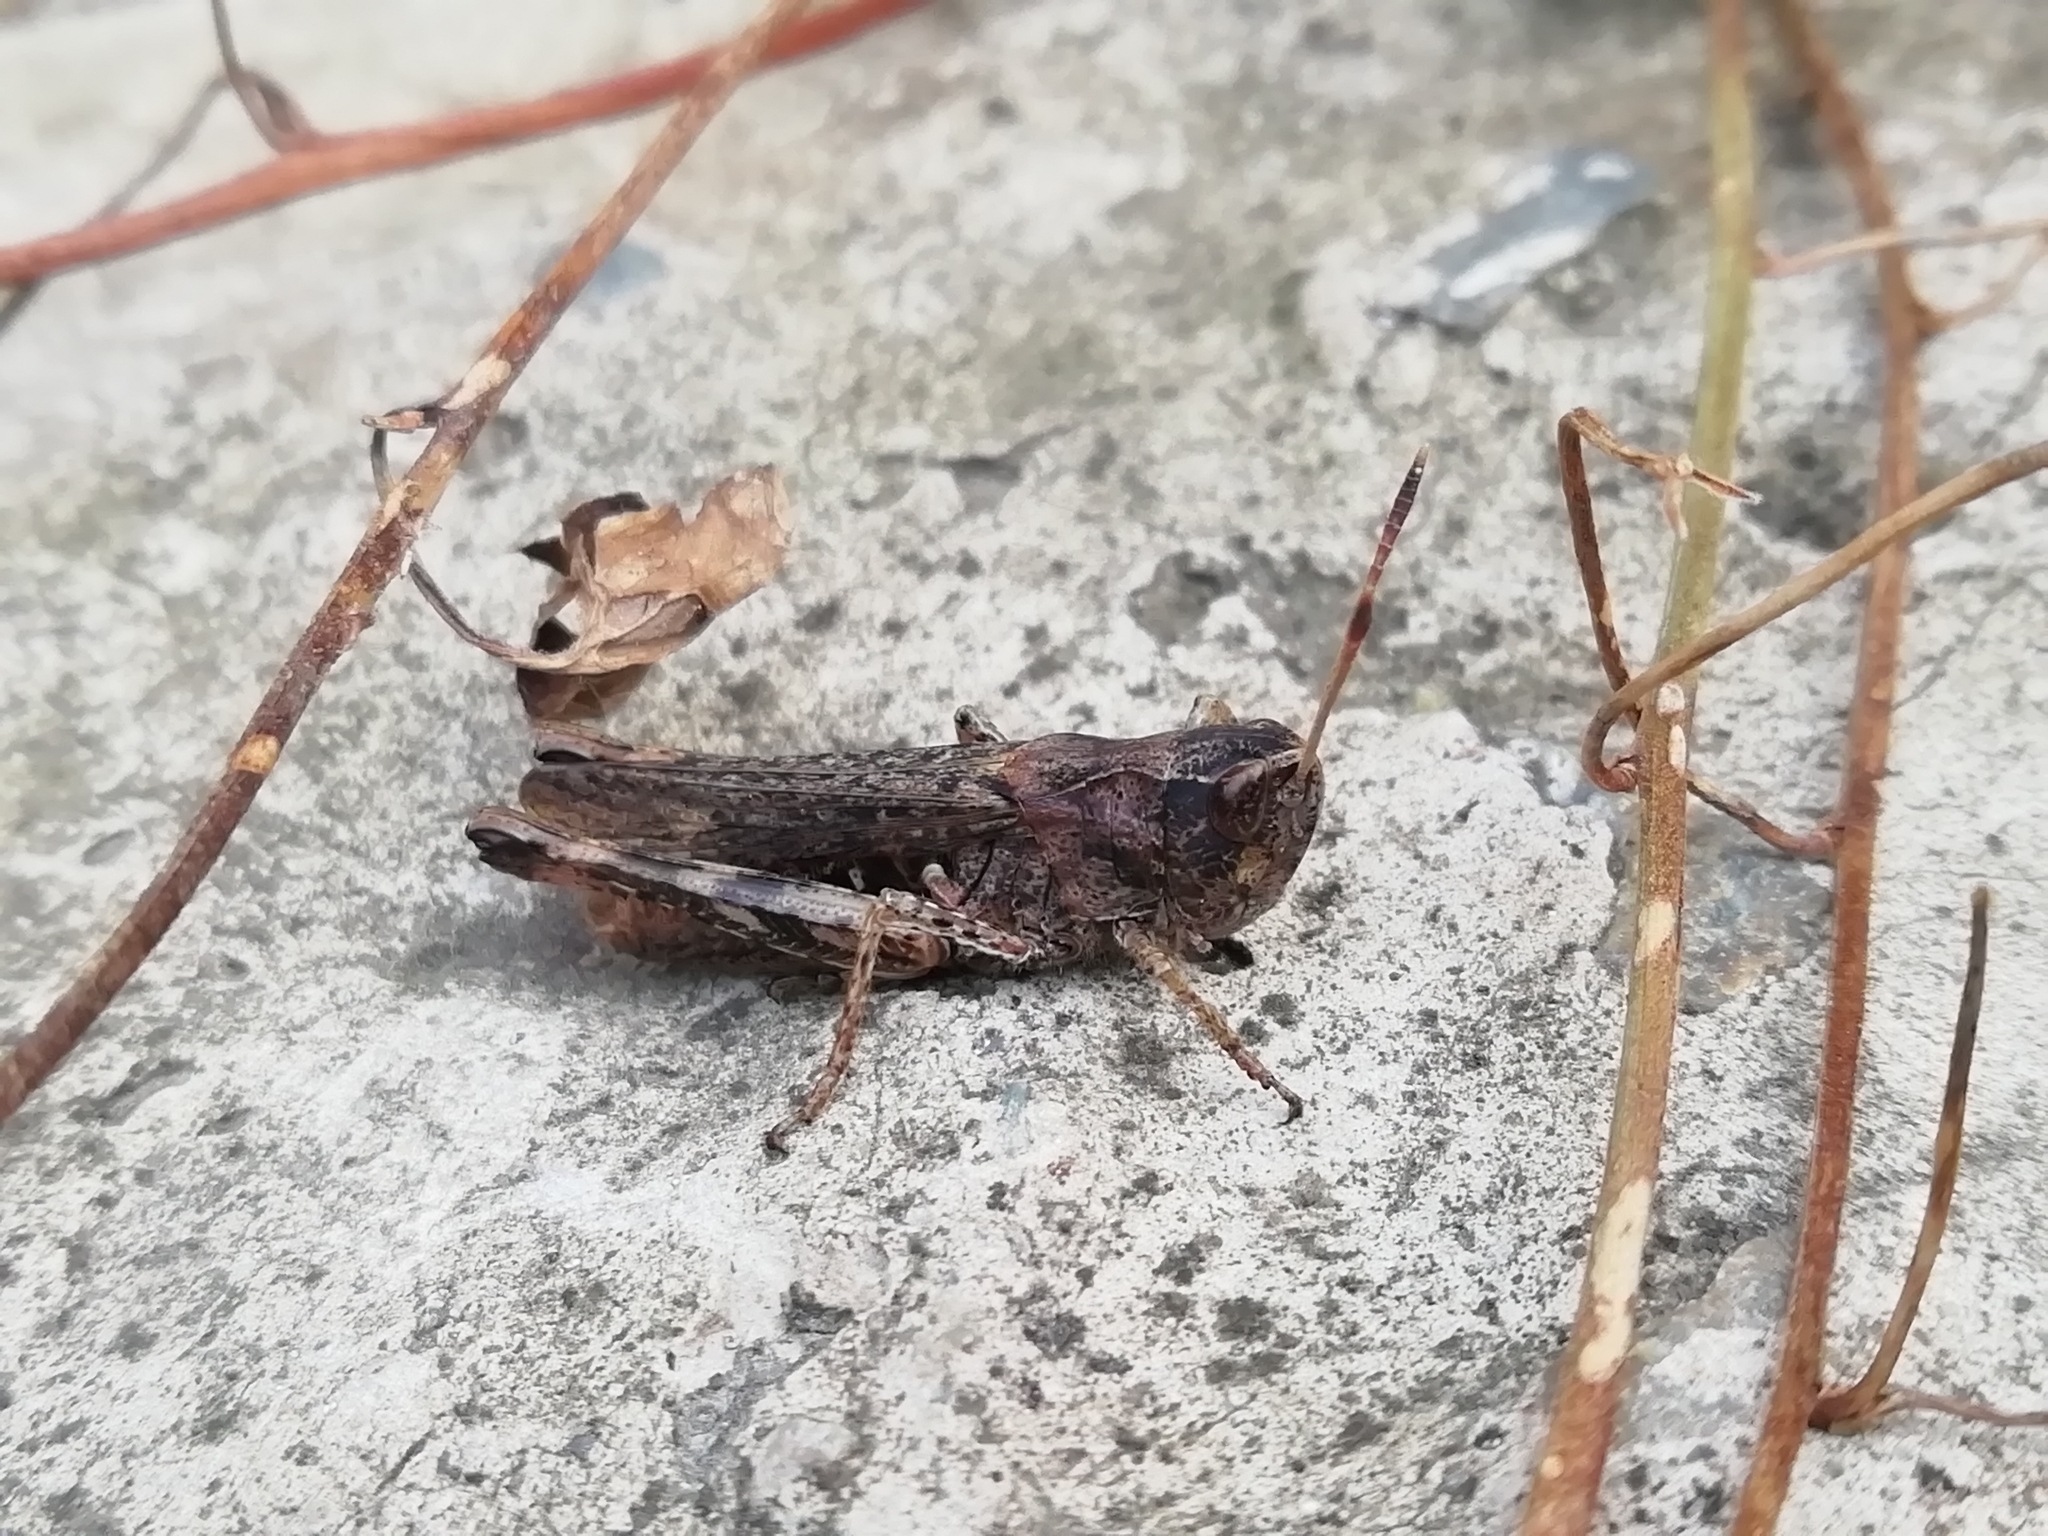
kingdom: Animalia
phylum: Arthropoda
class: Insecta
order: Orthoptera
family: Acrididae
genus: Gomphocerippus
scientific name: Gomphocerippus rufus
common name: Rufous grasshopper
